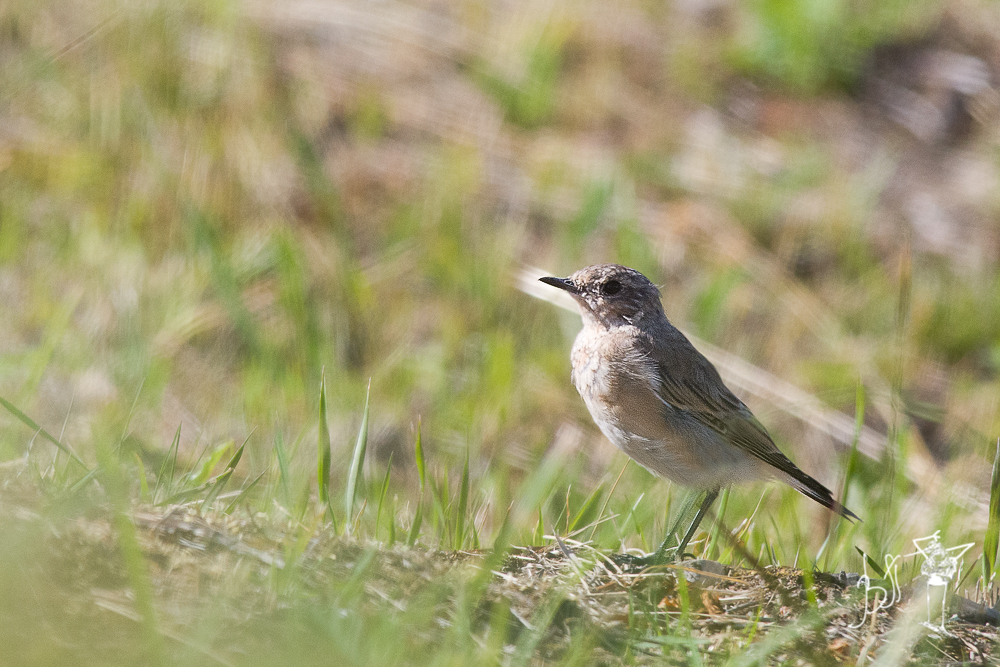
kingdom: Animalia
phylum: Chordata
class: Aves
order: Passeriformes
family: Muscicapidae
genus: Oenanthe
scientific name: Oenanthe oenanthe
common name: Northern wheatear
